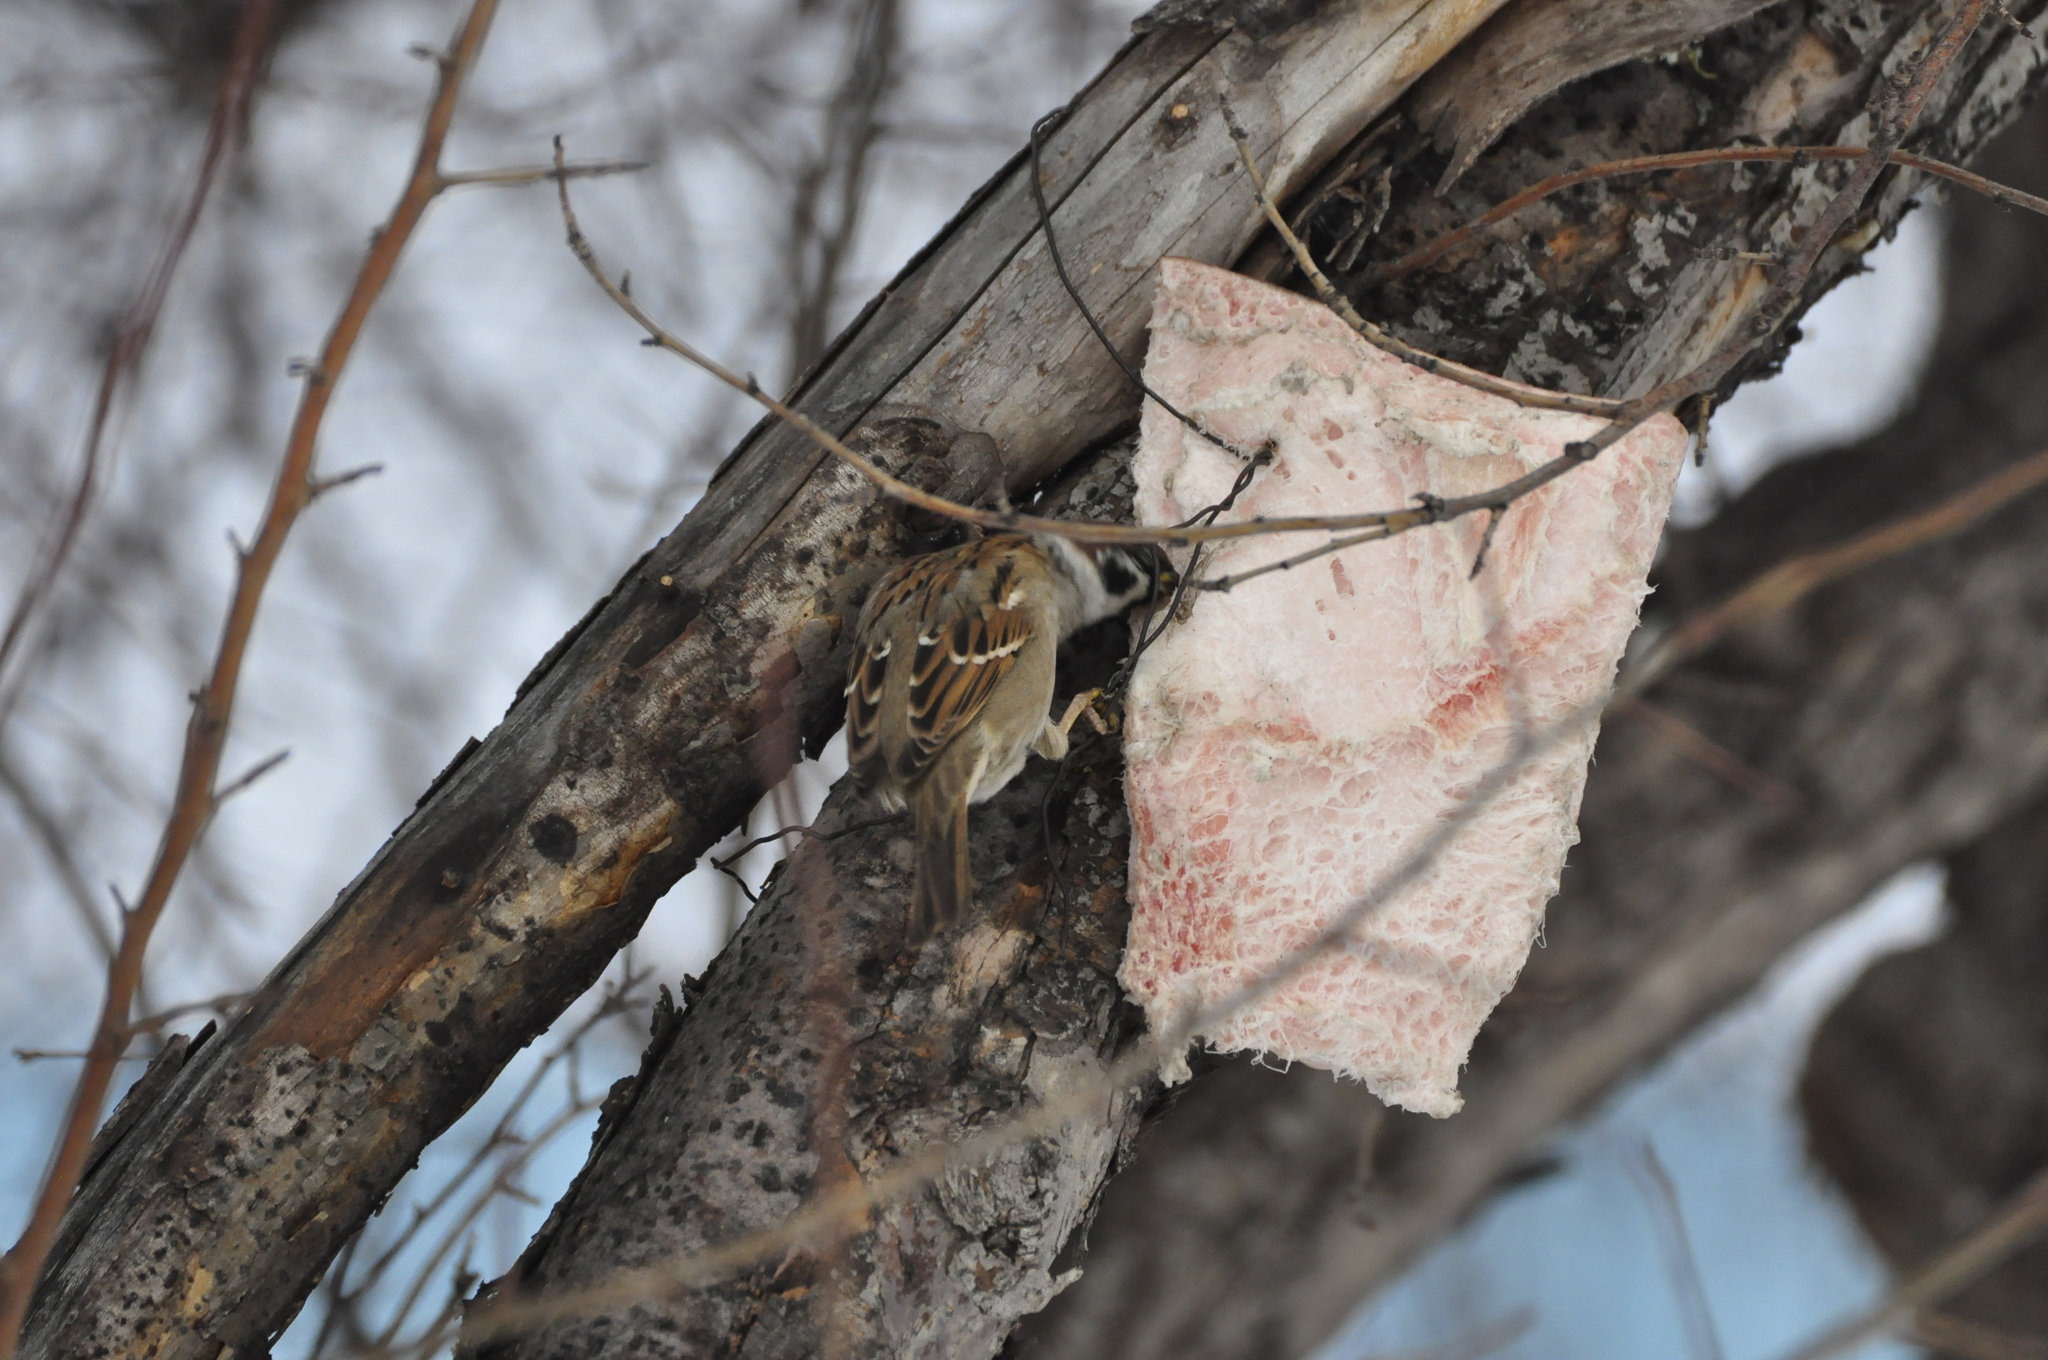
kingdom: Animalia
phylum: Chordata
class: Aves
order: Passeriformes
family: Passeridae
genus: Passer
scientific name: Passer montanus
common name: Eurasian tree sparrow
